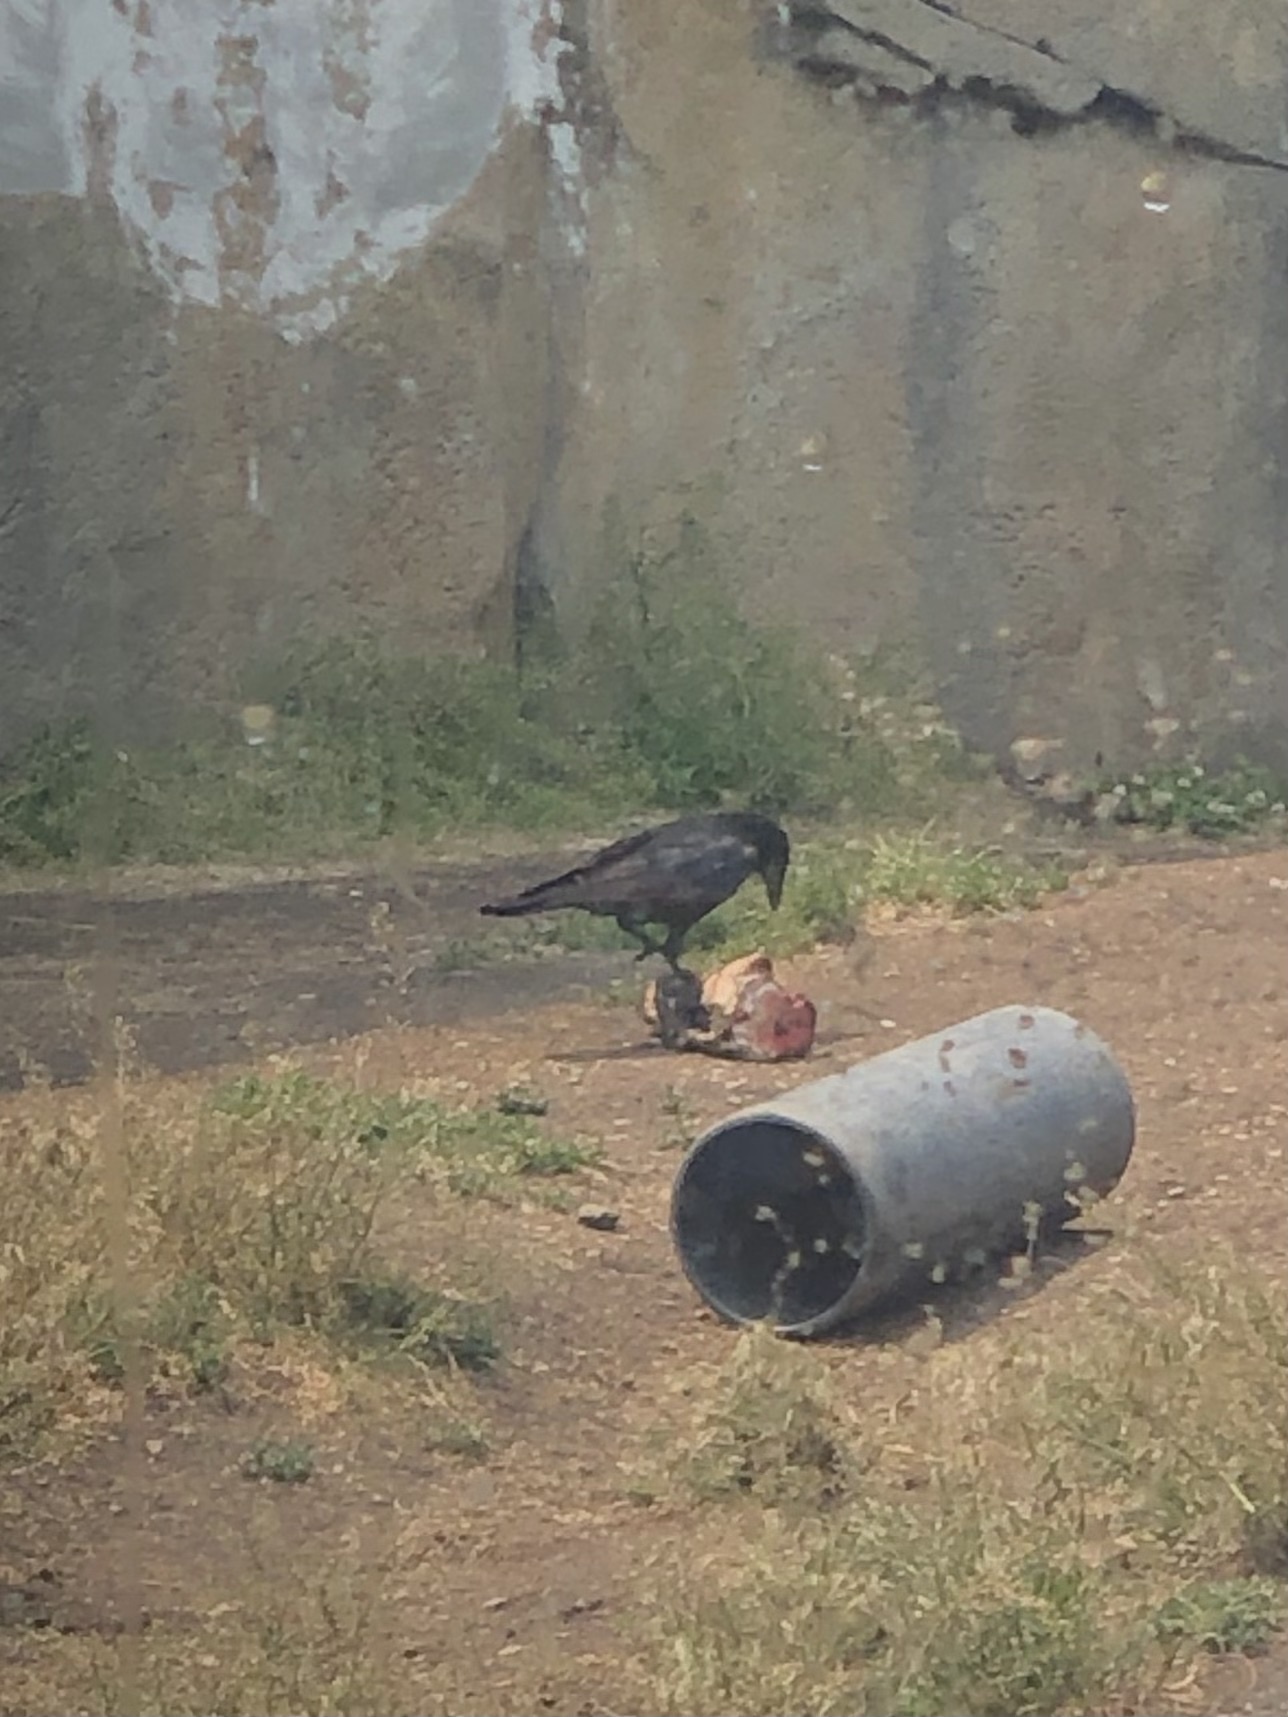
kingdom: Animalia
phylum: Chordata
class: Aves
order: Passeriformes
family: Corvidae
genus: Corvus
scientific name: Corvus brachyrhynchos
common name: American crow
